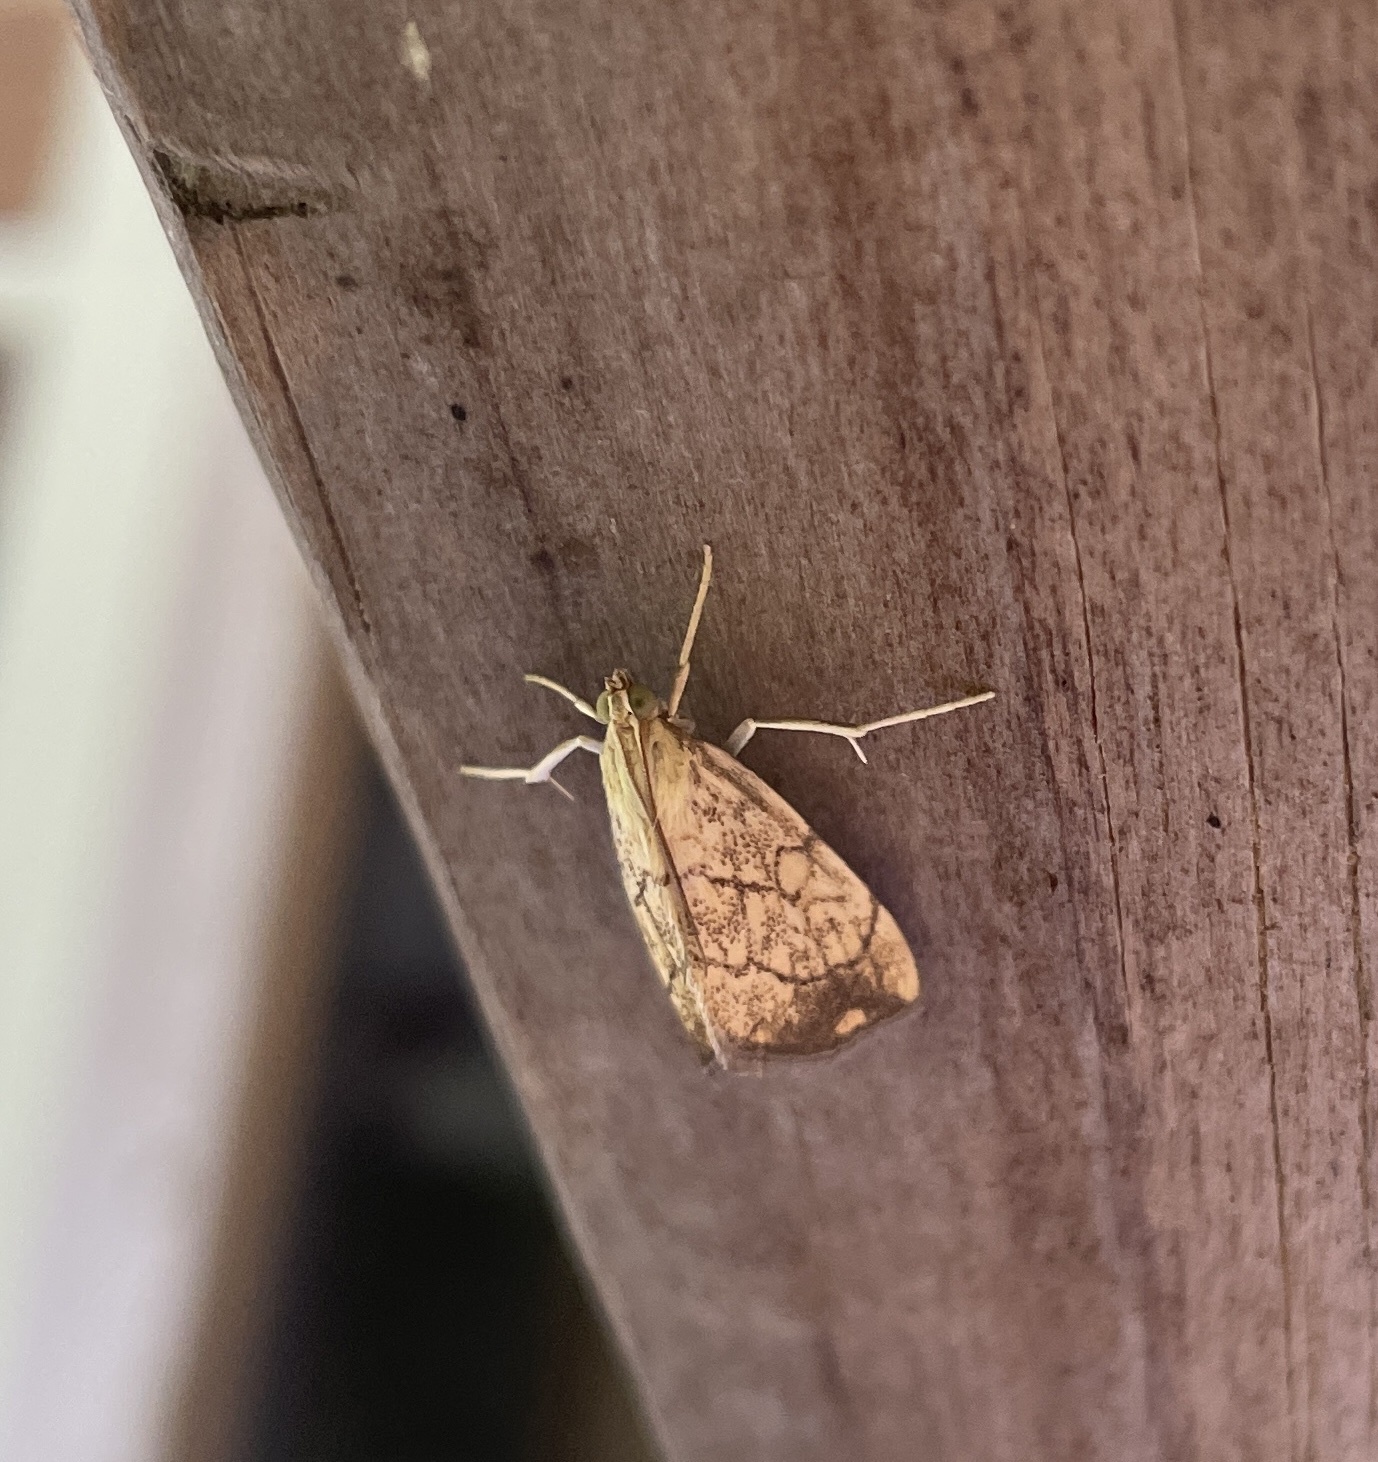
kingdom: Animalia
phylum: Arthropoda
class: Insecta
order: Lepidoptera
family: Crambidae
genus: Evergestis
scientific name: Evergestis pallidata
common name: Chequered pearl
